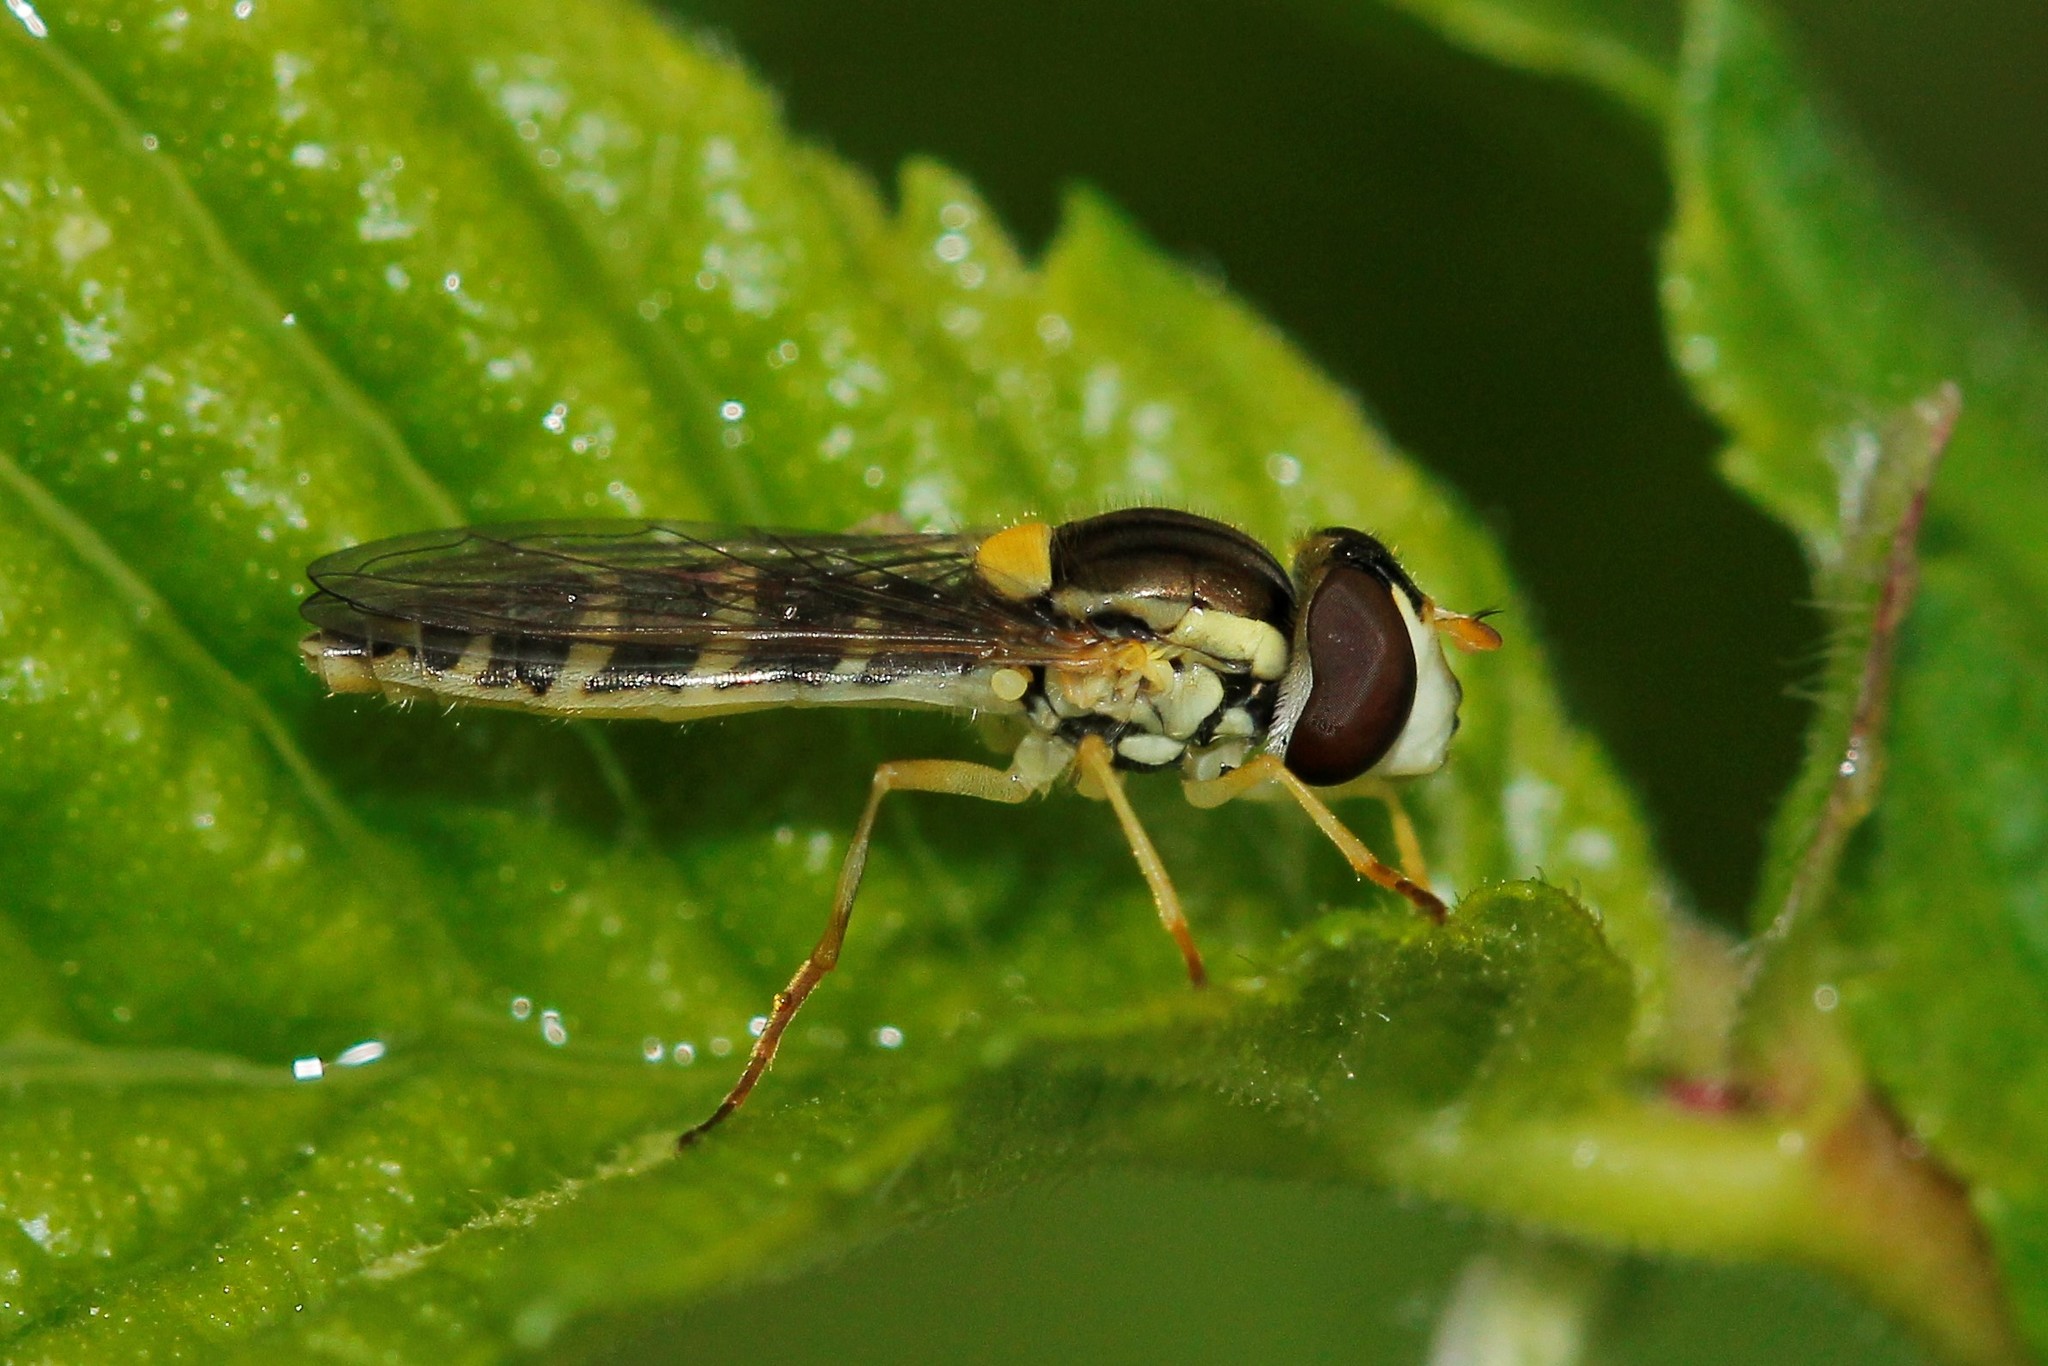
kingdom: Animalia
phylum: Arthropoda
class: Insecta
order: Diptera
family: Syrphidae
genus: Sphaerophoria
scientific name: Sphaerophoria
